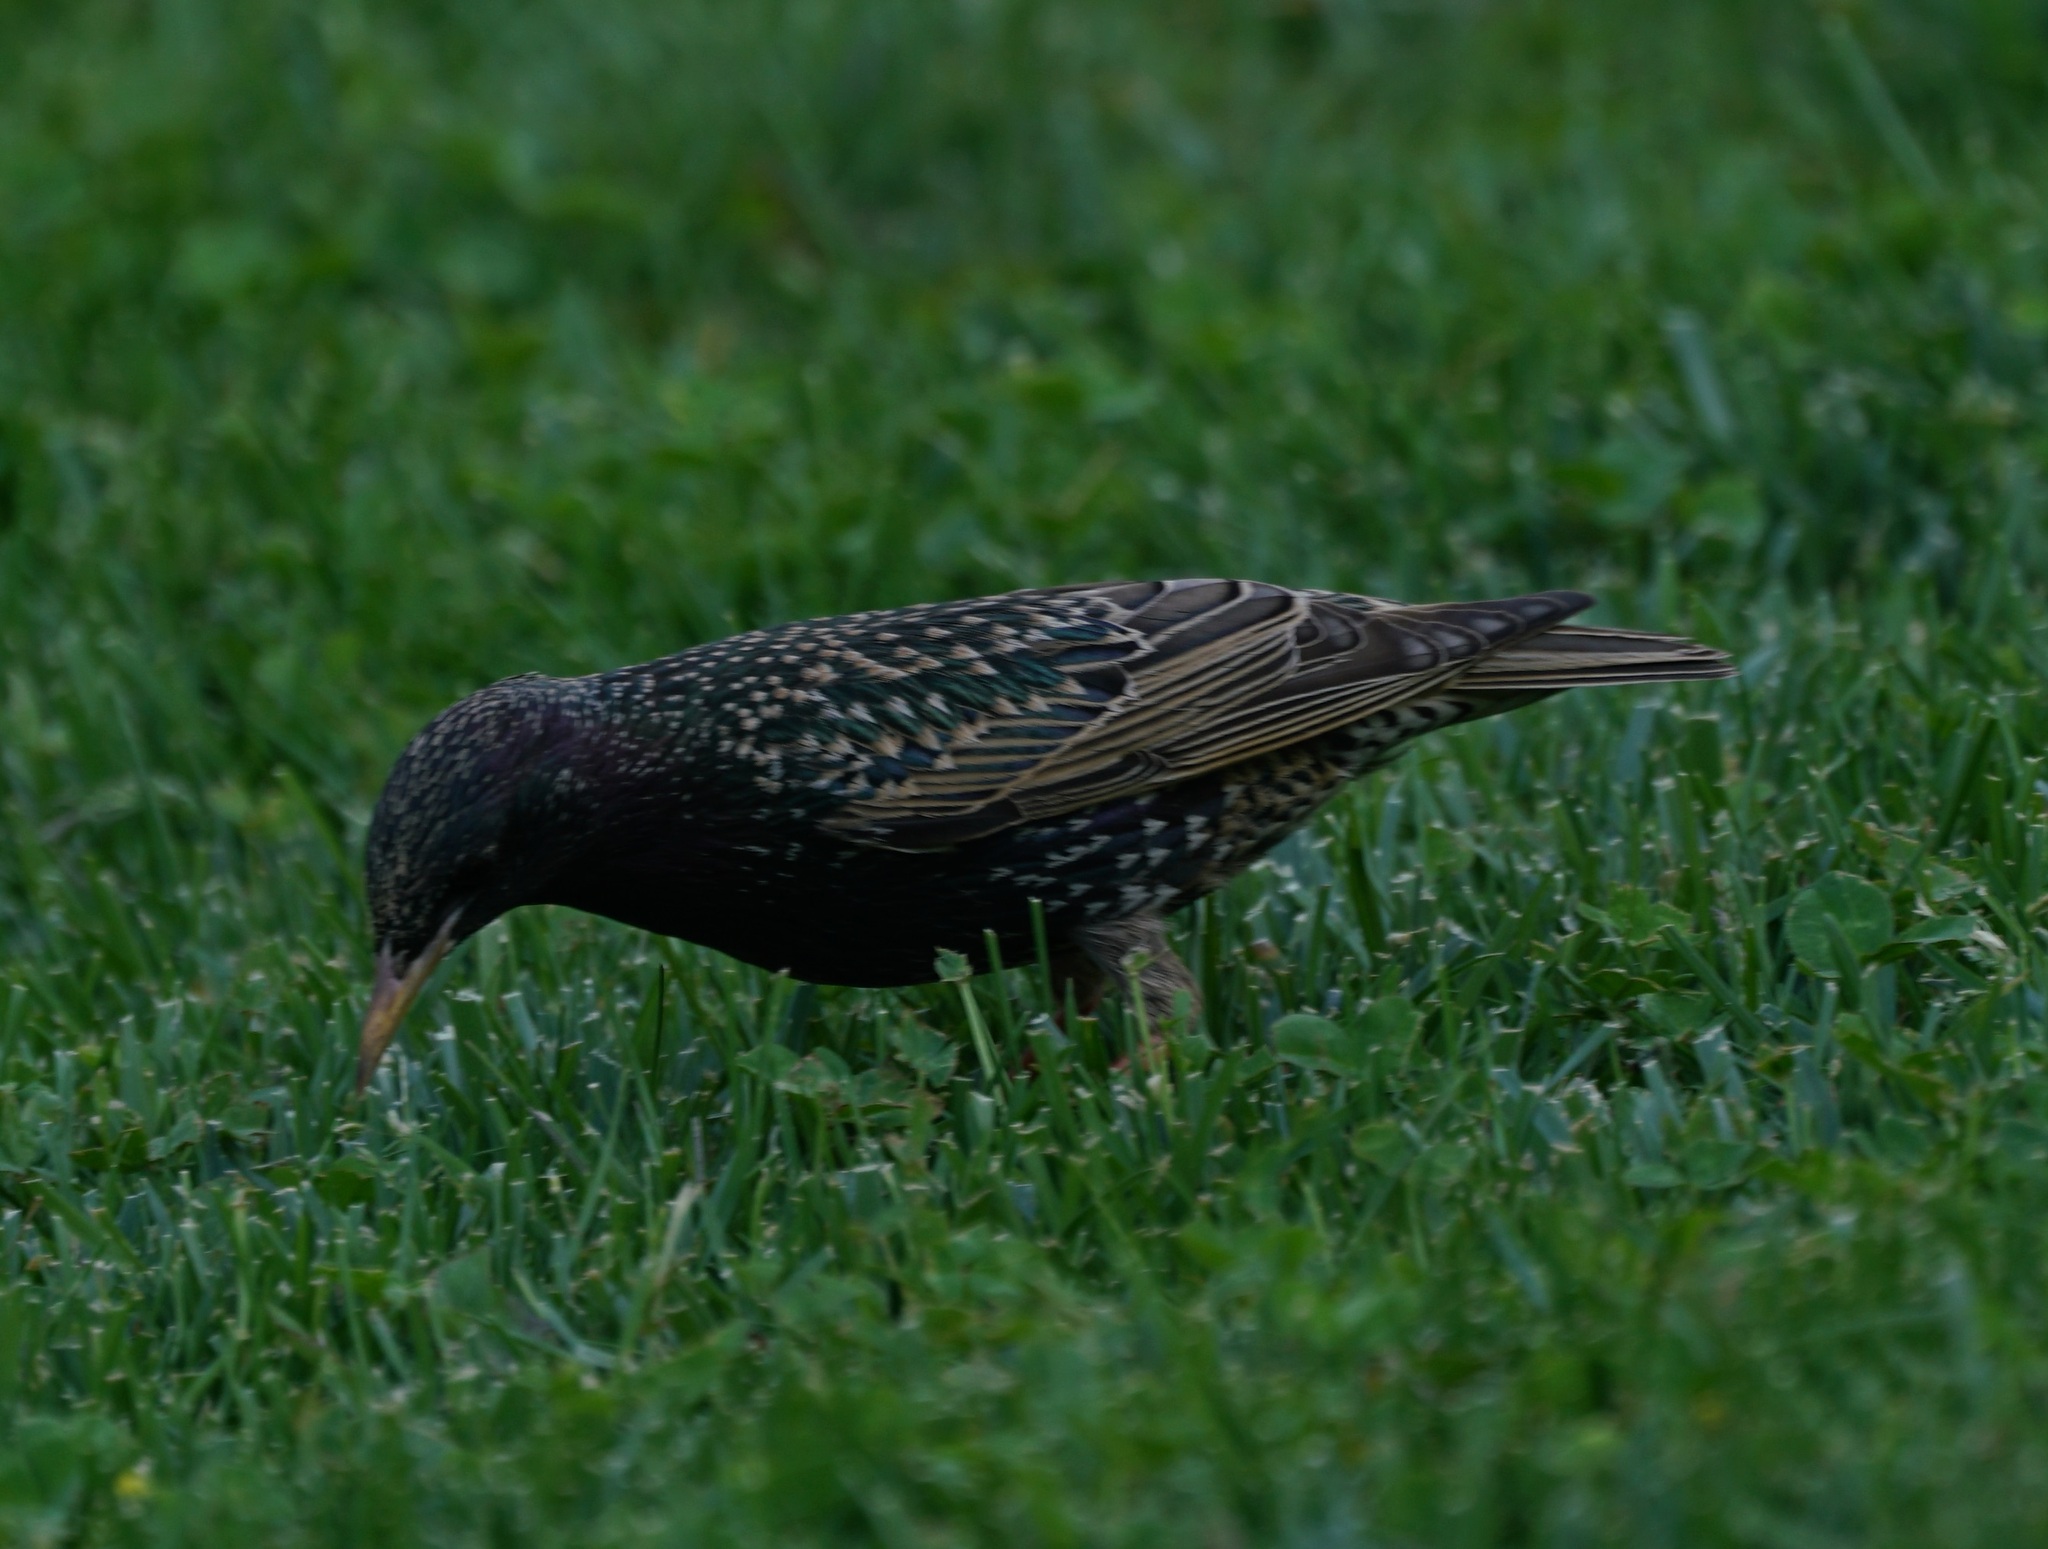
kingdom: Animalia
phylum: Chordata
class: Aves
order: Passeriformes
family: Sturnidae
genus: Sturnus
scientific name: Sturnus vulgaris
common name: Common starling
